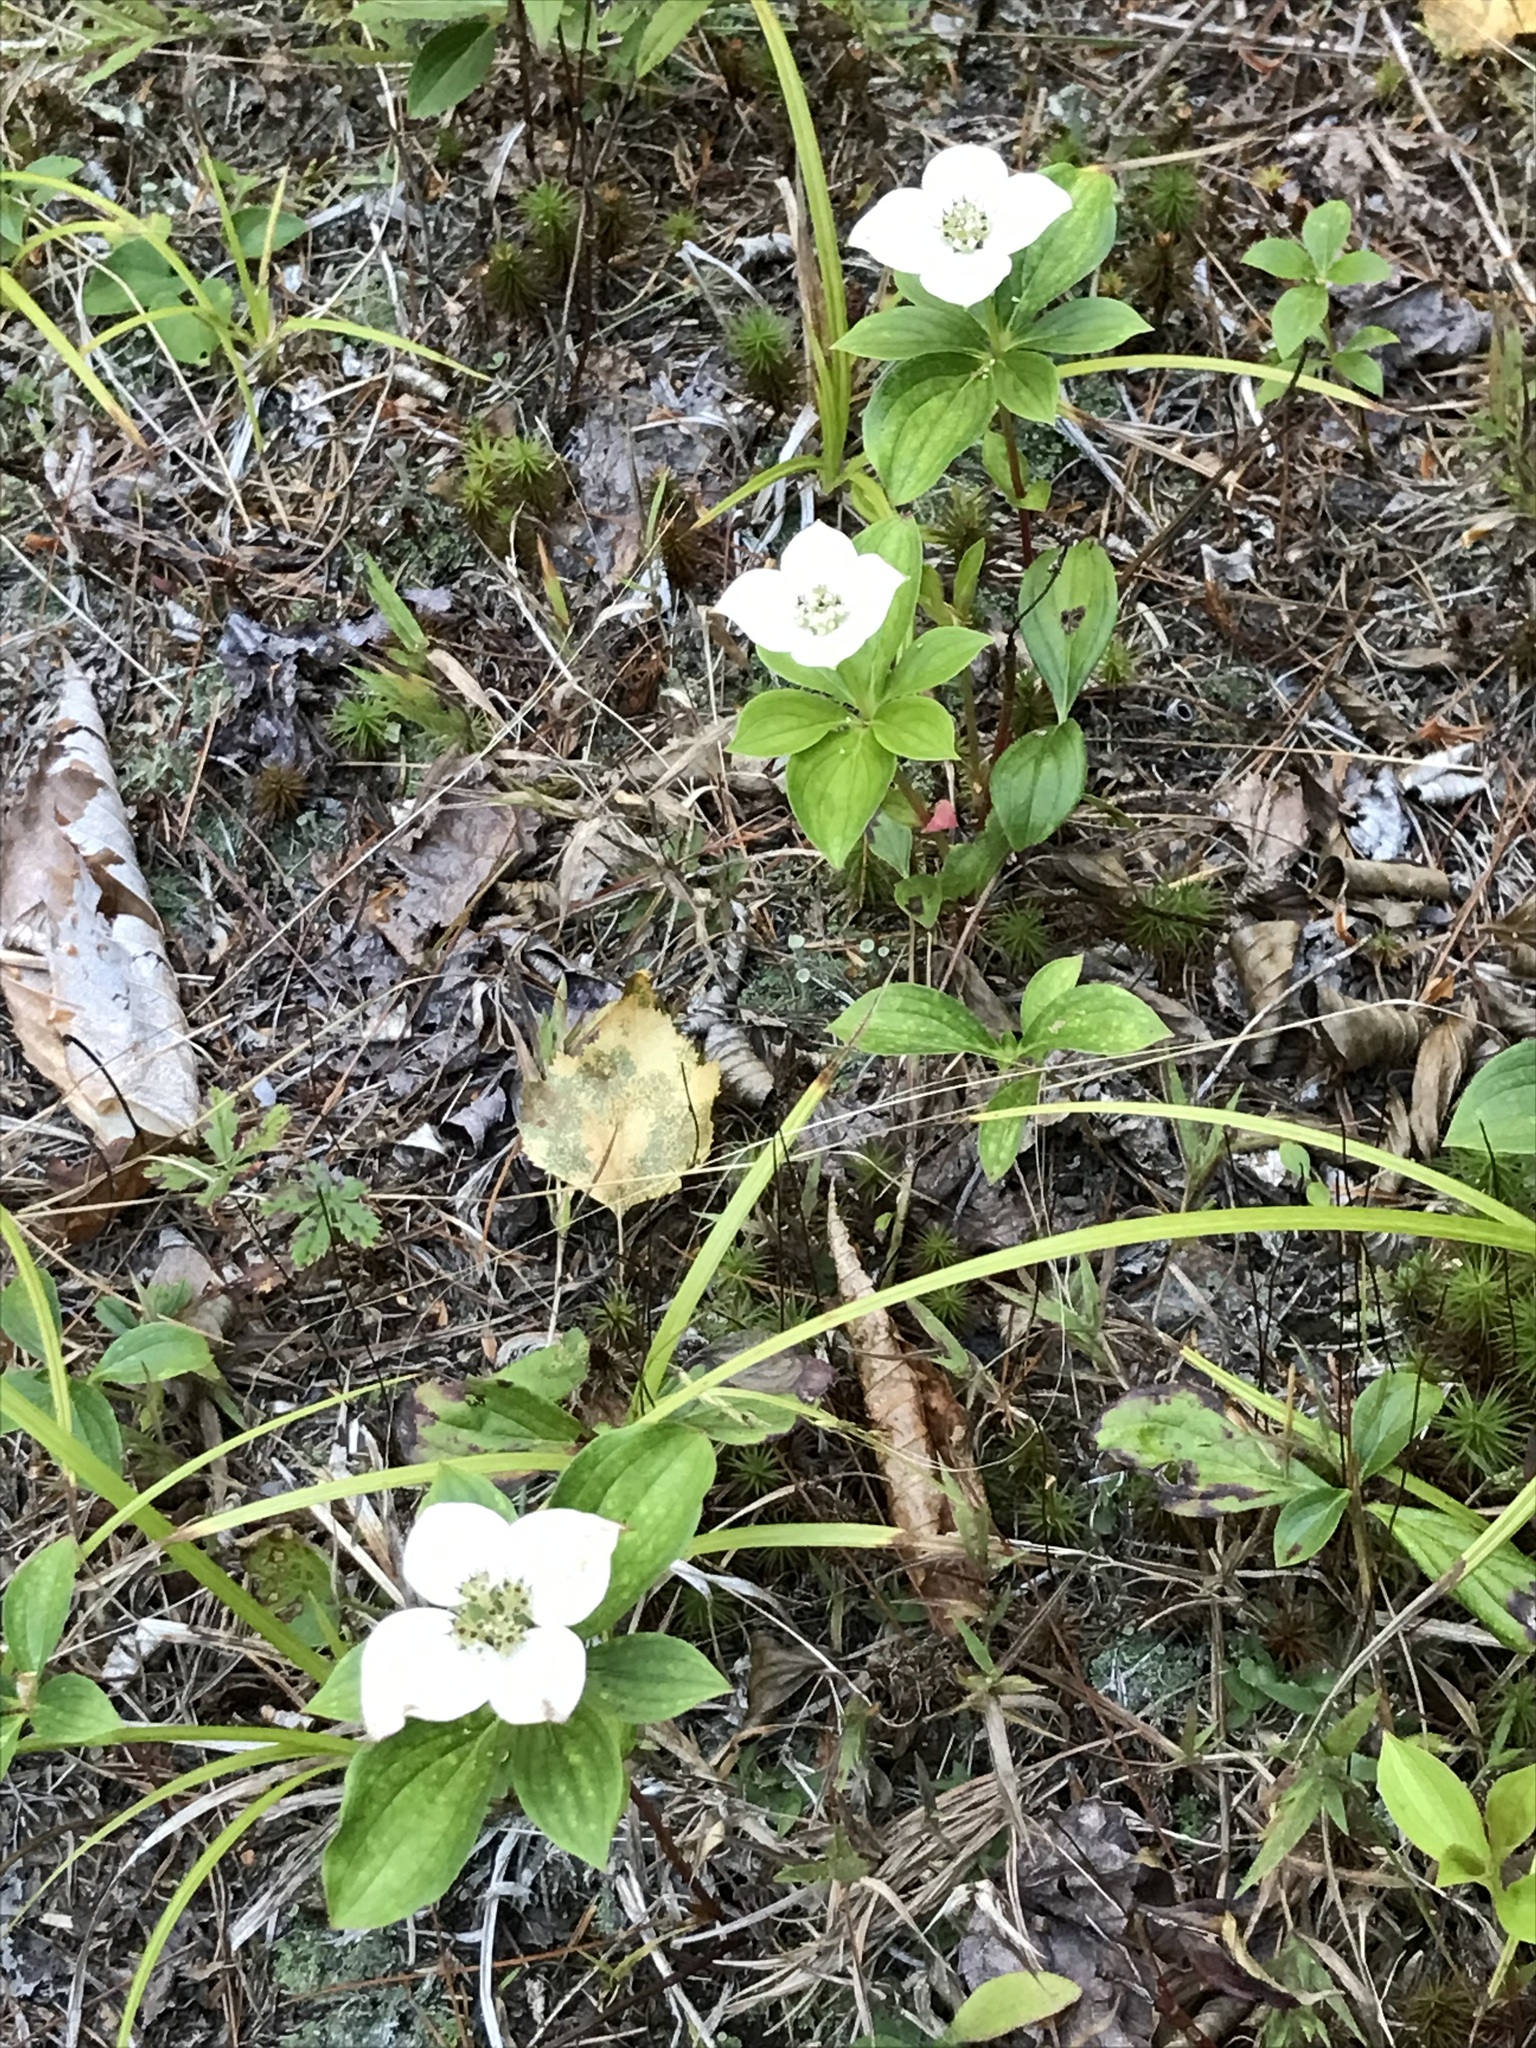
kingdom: Plantae
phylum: Tracheophyta
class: Magnoliopsida
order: Cornales
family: Cornaceae
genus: Cornus
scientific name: Cornus canadensis
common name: Creeping dogwood
